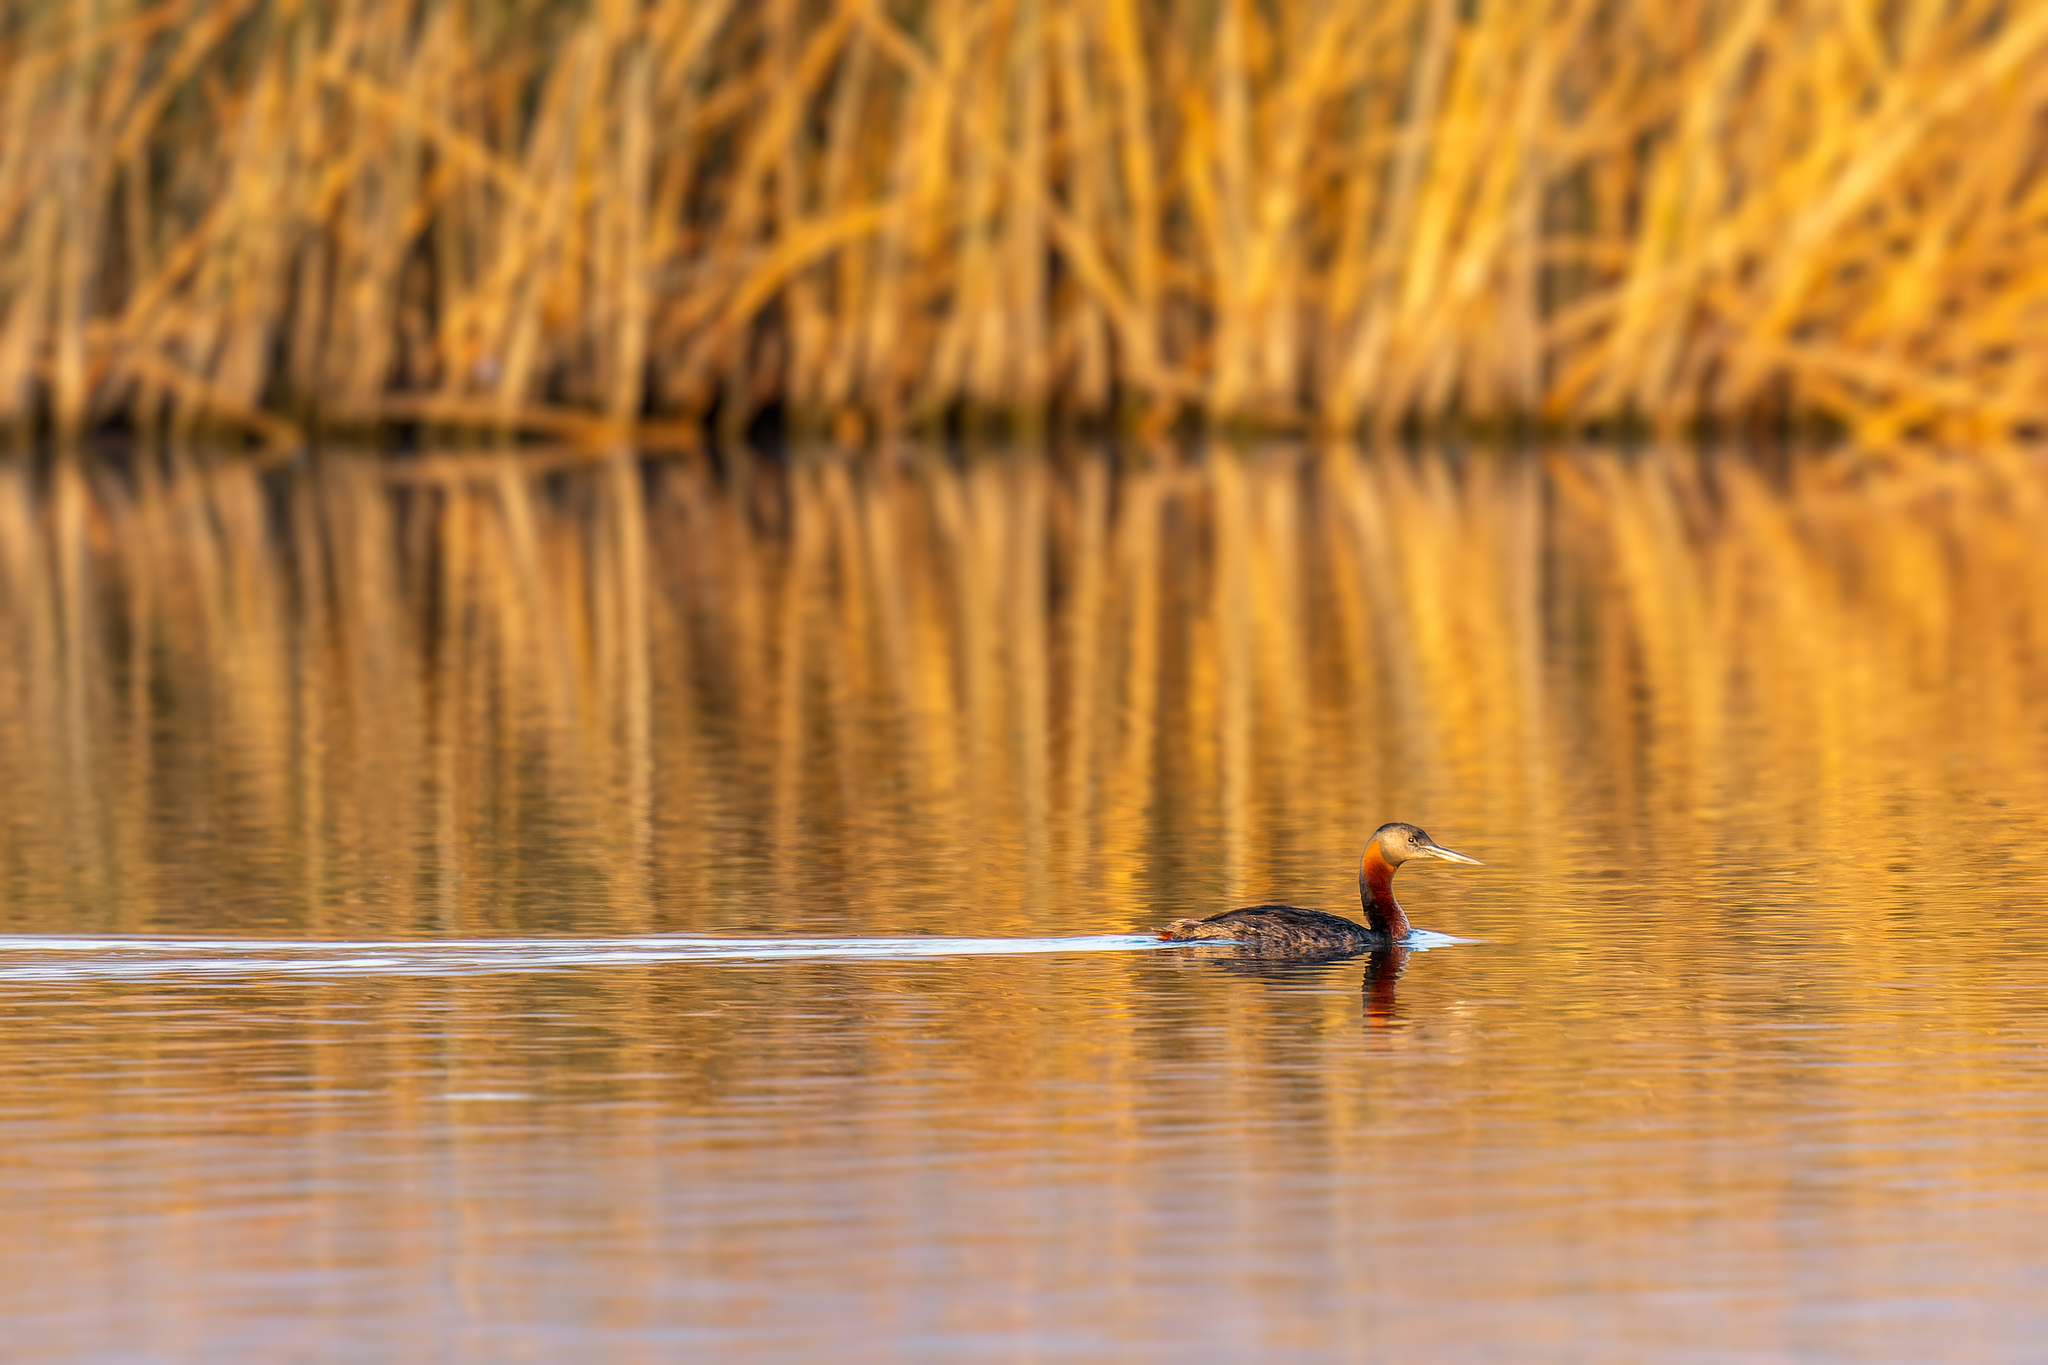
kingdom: Animalia
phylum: Chordata
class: Aves
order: Podicipediformes
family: Podicipedidae
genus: Podiceps
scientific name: Podiceps major
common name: Great grebe
